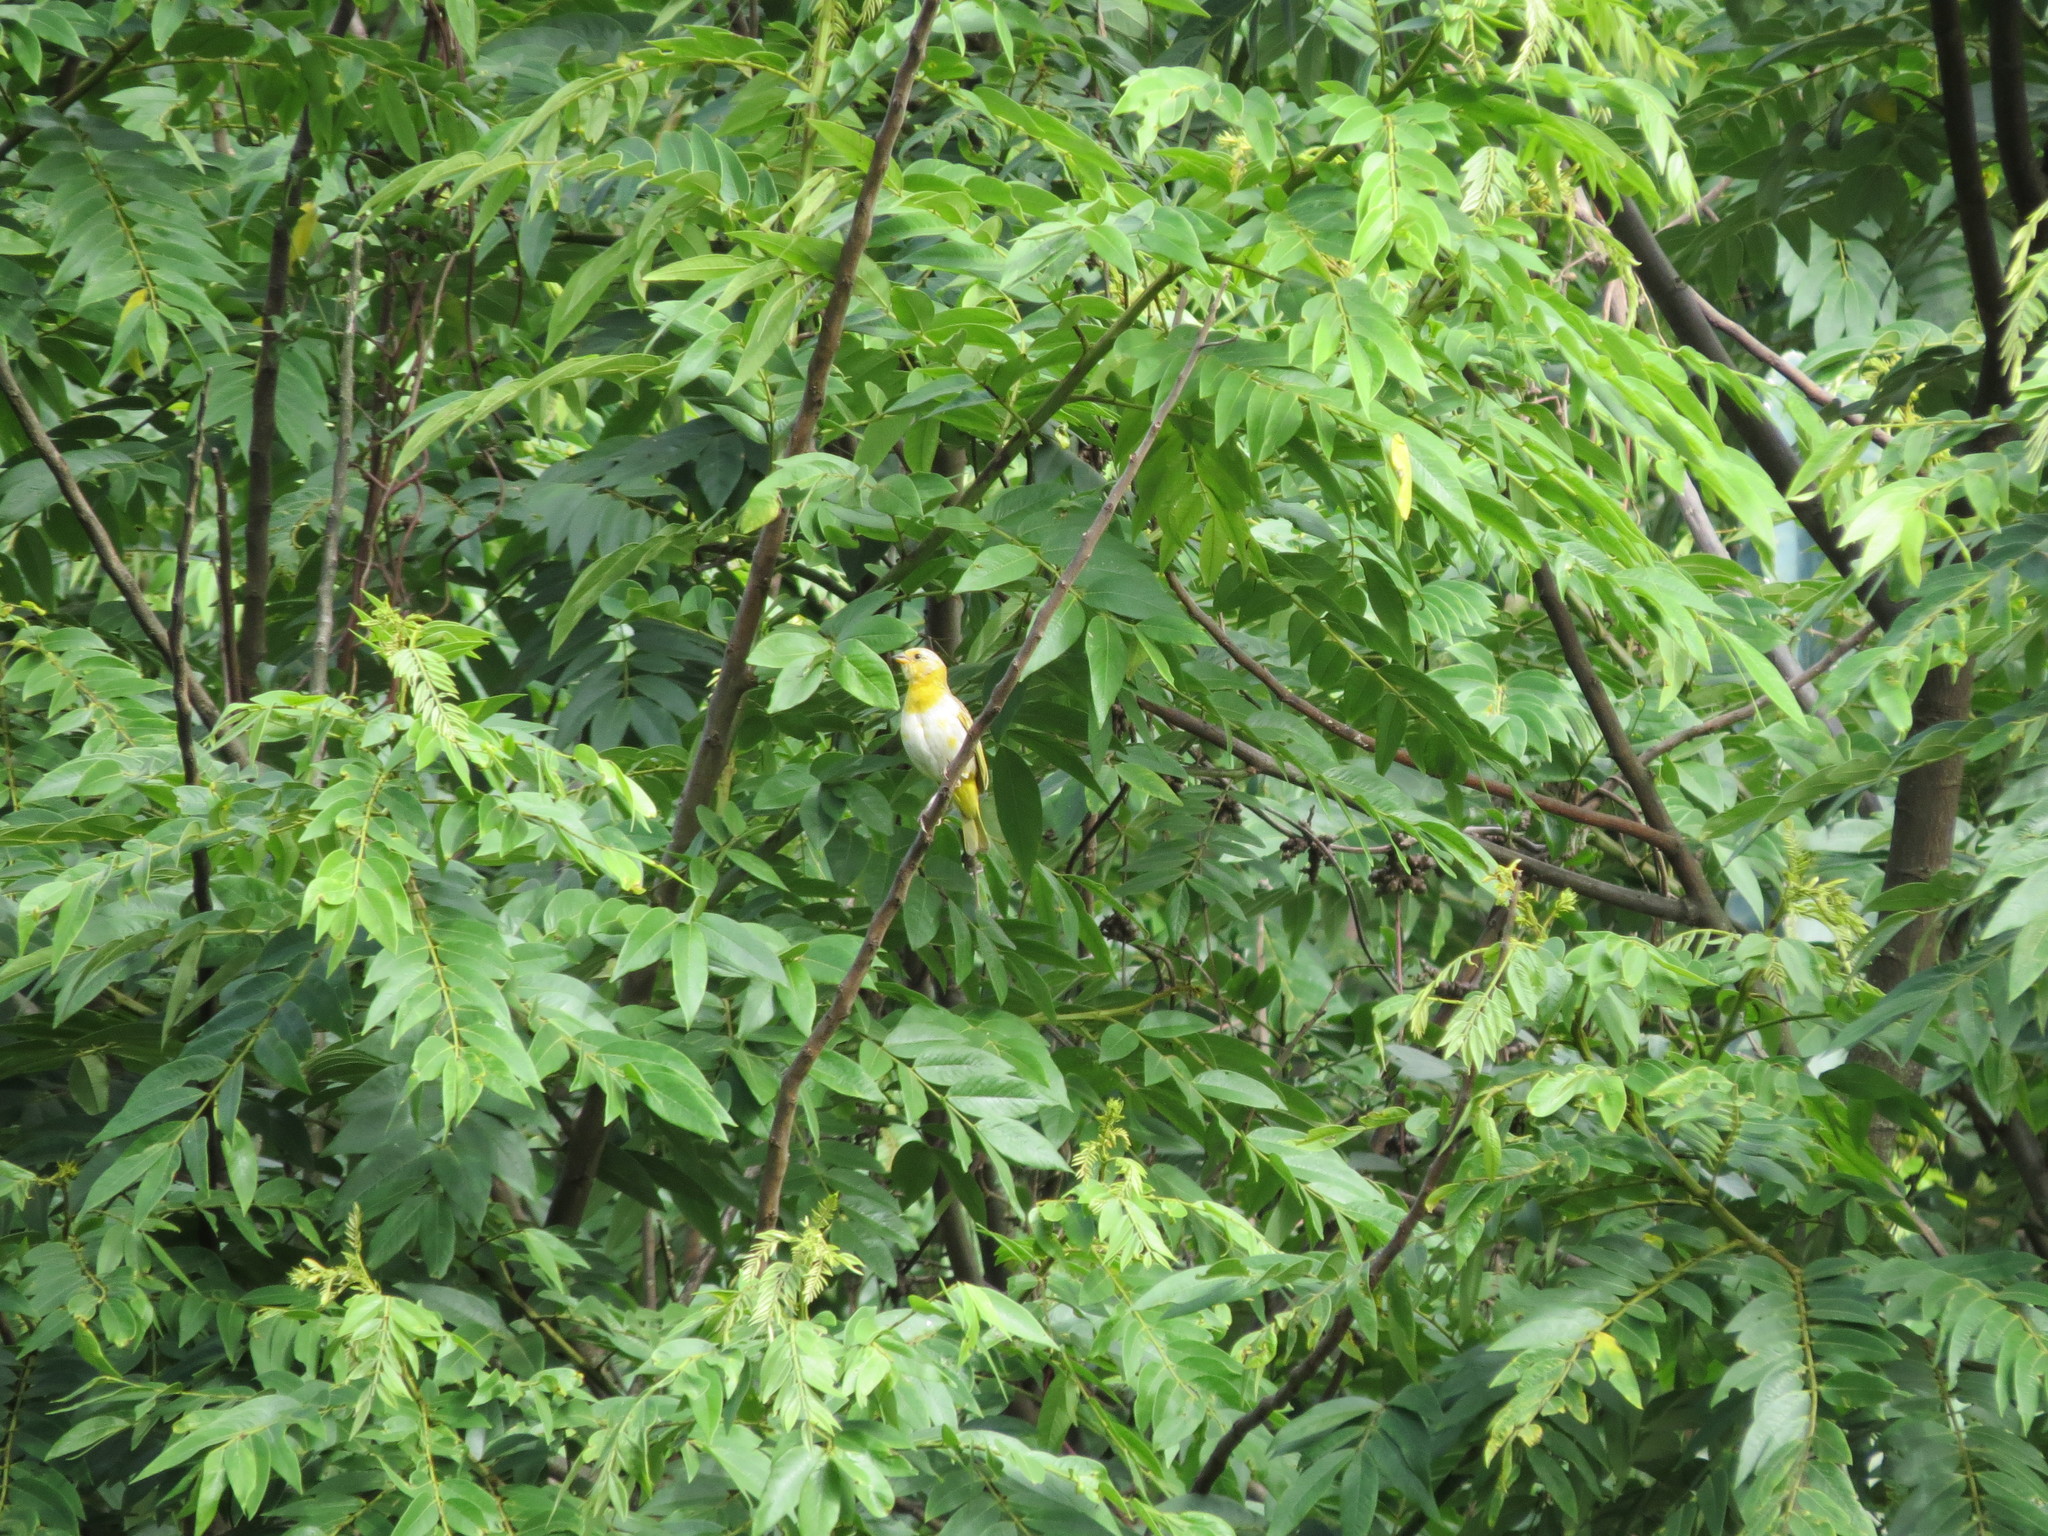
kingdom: Animalia
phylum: Chordata
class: Aves
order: Passeriformes
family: Thraupidae
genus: Sicalis
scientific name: Sicalis flaveola
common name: Saffron finch
